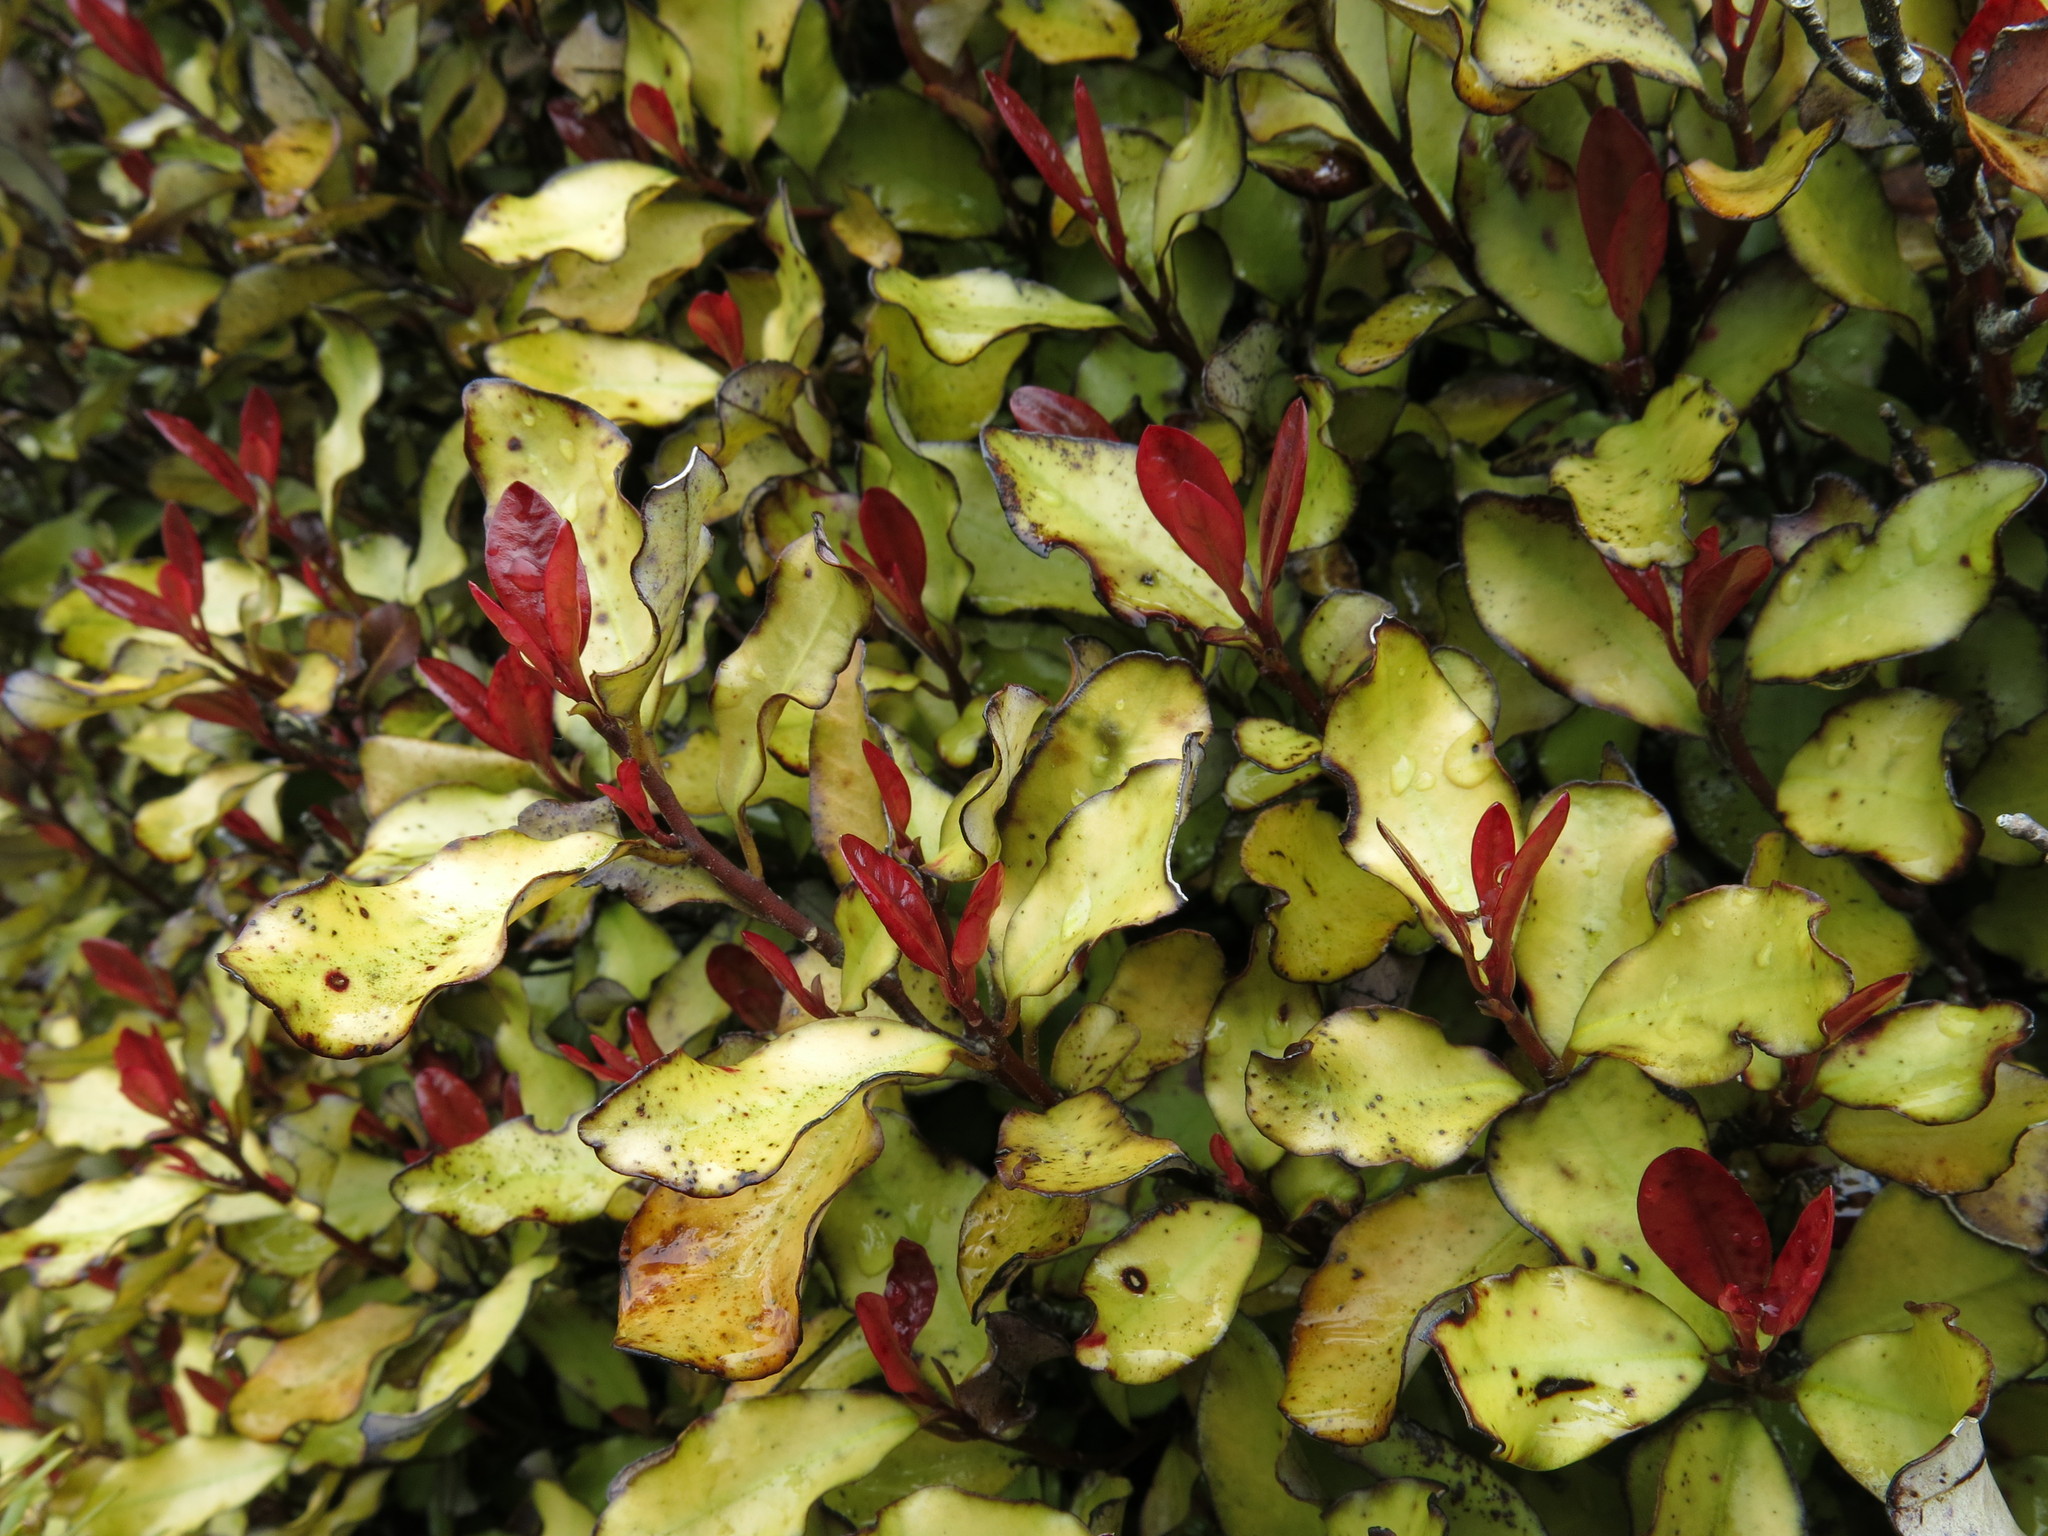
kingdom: Plantae
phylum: Tracheophyta
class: Magnoliopsida
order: Canellales
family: Winteraceae
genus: Pseudowintera
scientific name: Pseudowintera colorata
